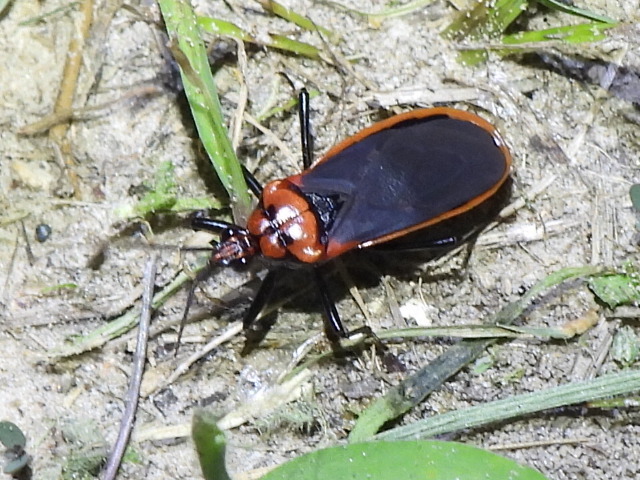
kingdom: Animalia
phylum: Arthropoda
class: Insecta
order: Hemiptera
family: Reduviidae
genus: Rhiginia
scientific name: Rhiginia cinctiventris
